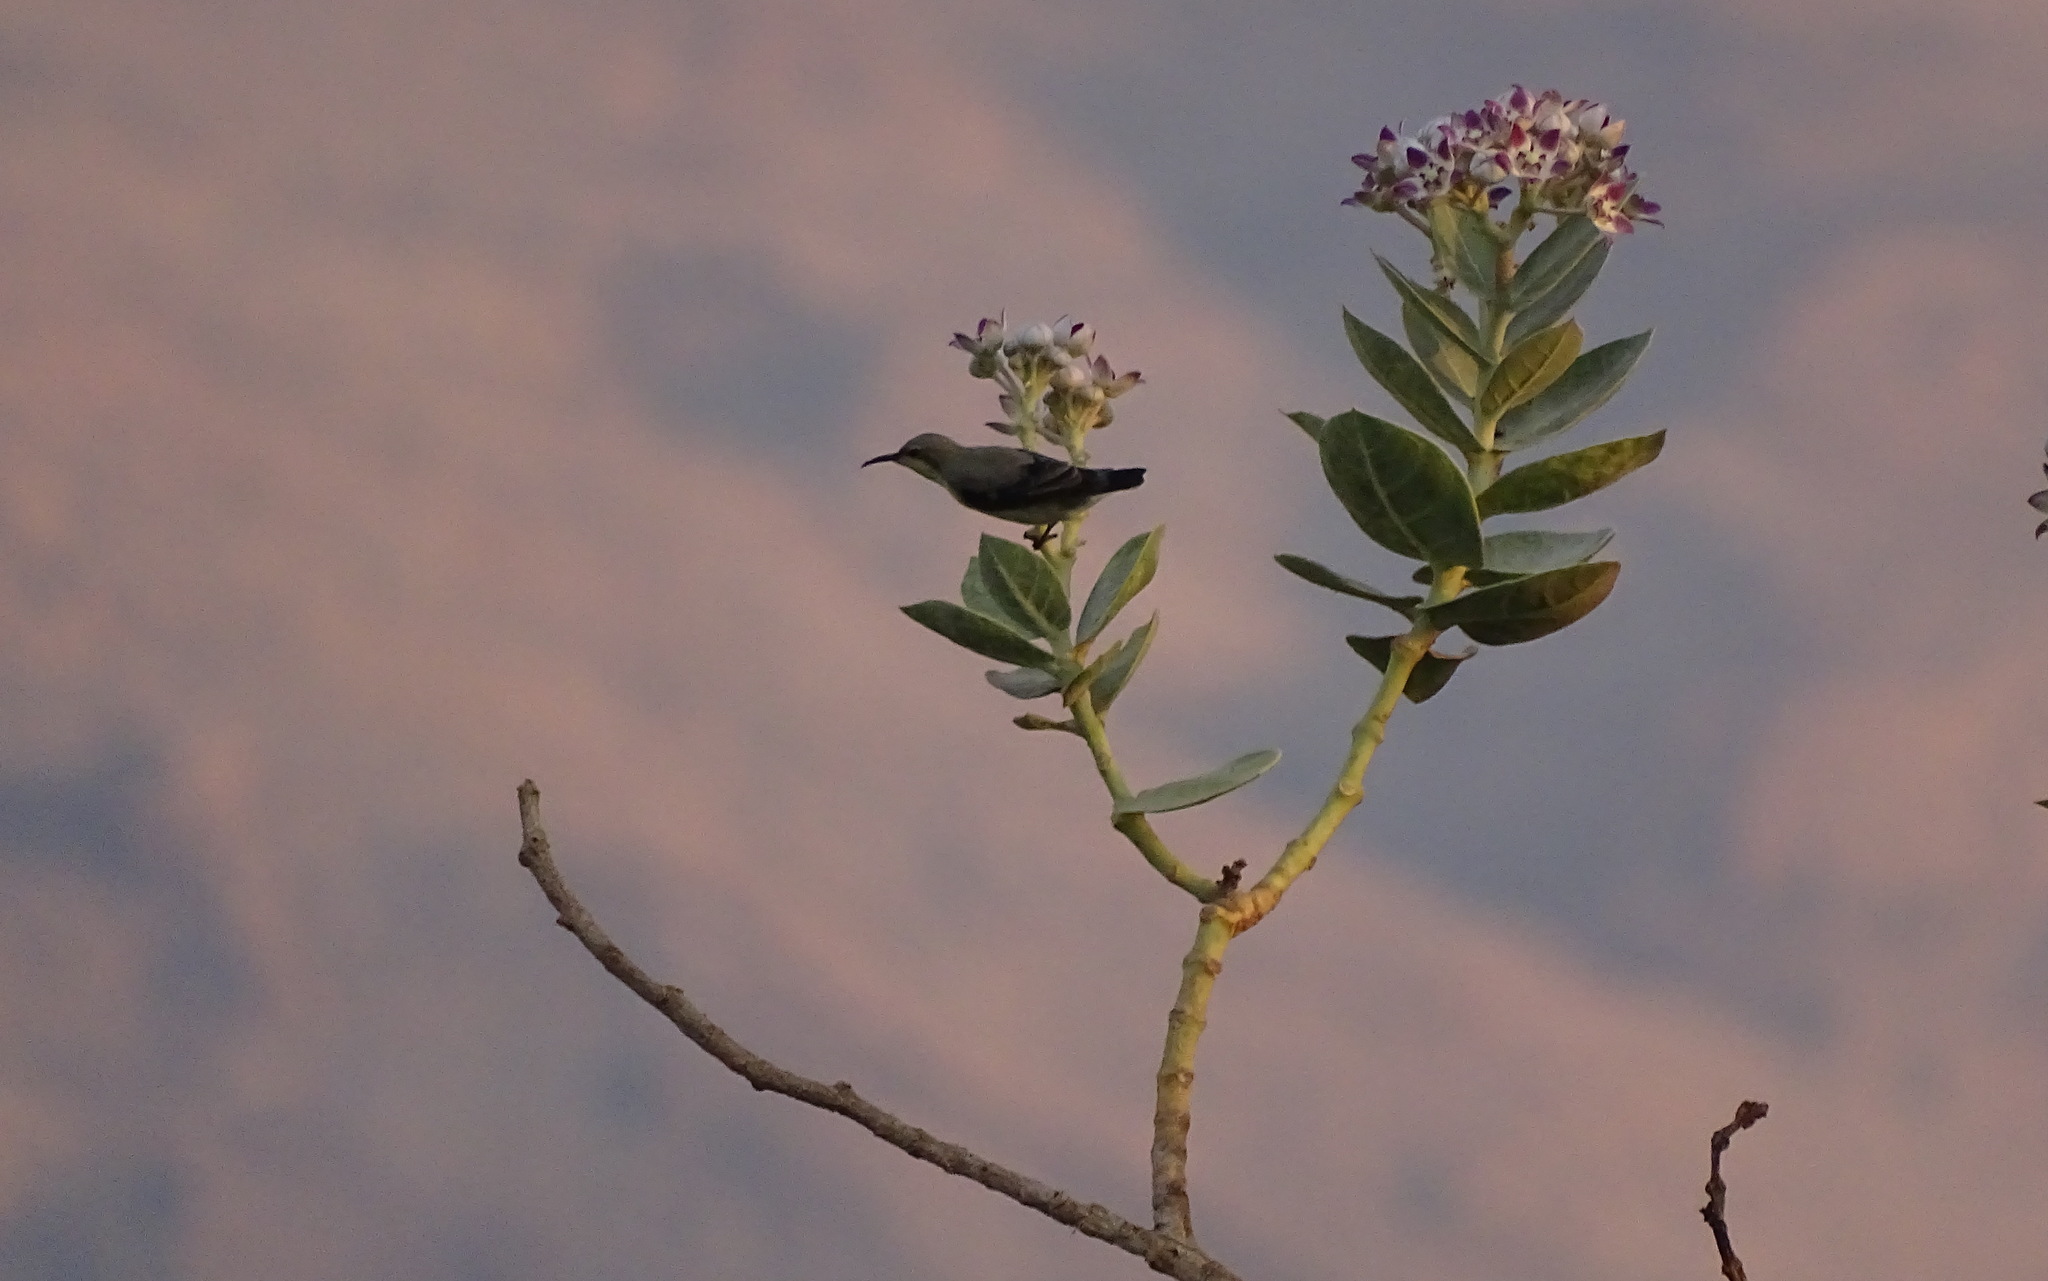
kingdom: Animalia
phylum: Chordata
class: Aves
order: Passeriformes
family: Nectariniidae
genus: Cinnyris
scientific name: Cinnyris asiaticus
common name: Purple sunbird
